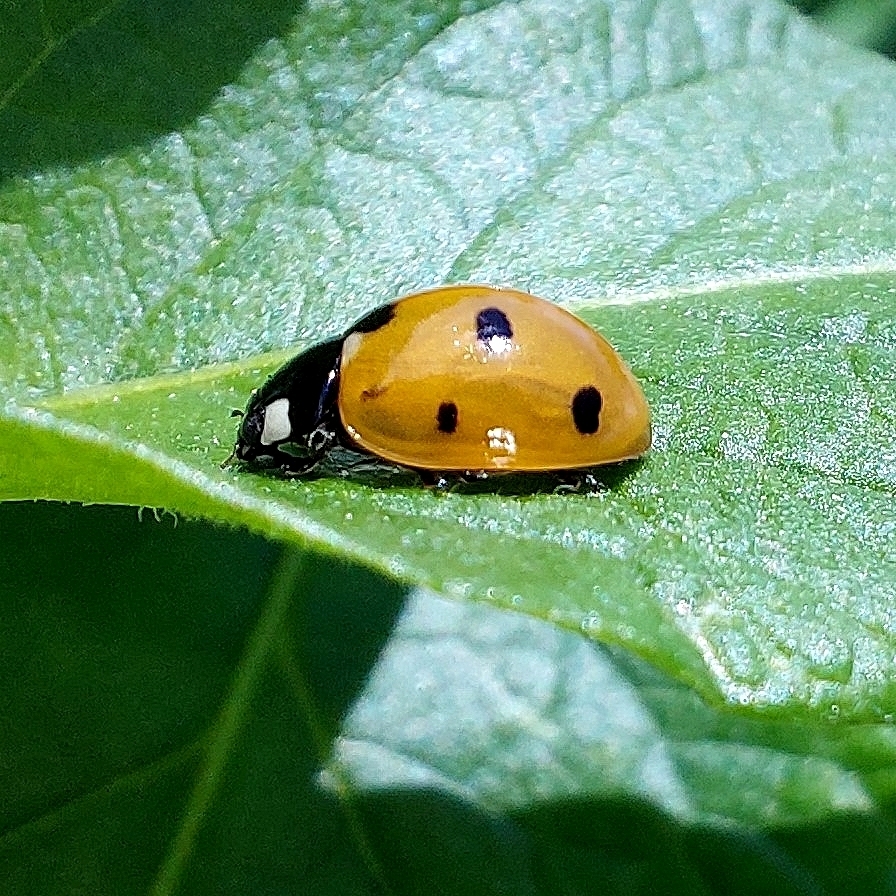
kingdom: Animalia
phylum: Arthropoda
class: Insecta
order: Coleoptera
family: Coccinellidae
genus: Coccinella
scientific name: Coccinella septempunctata
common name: Sevenspotted lady beetle
